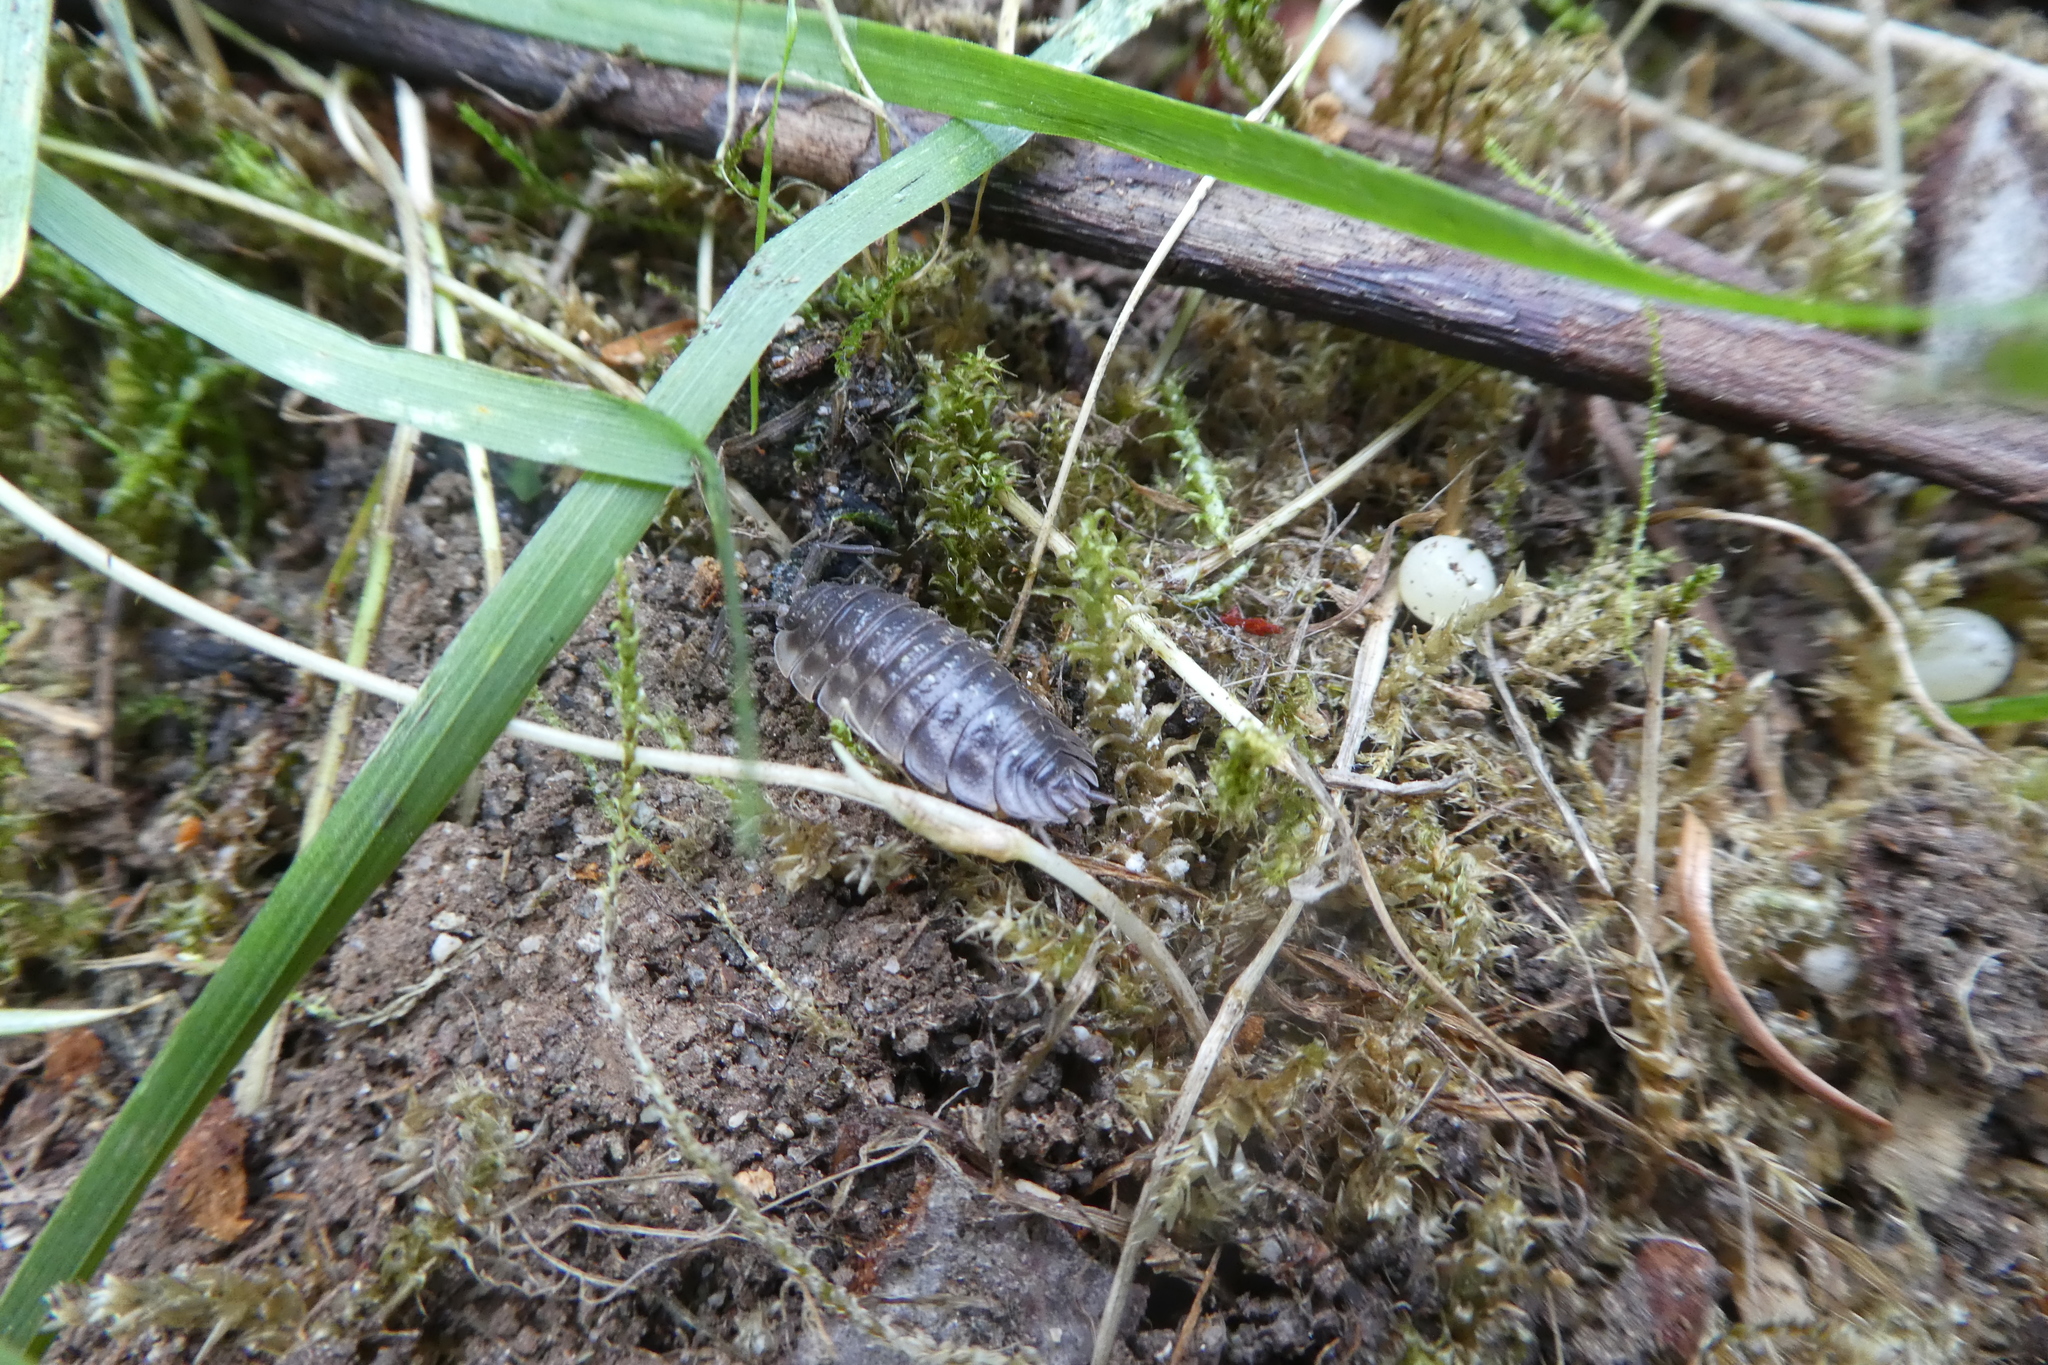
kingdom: Animalia
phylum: Arthropoda
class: Malacostraca
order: Isopoda
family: Oniscidae
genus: Oniscus
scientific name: Oniscus asellus
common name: Common shiny woodlouse
